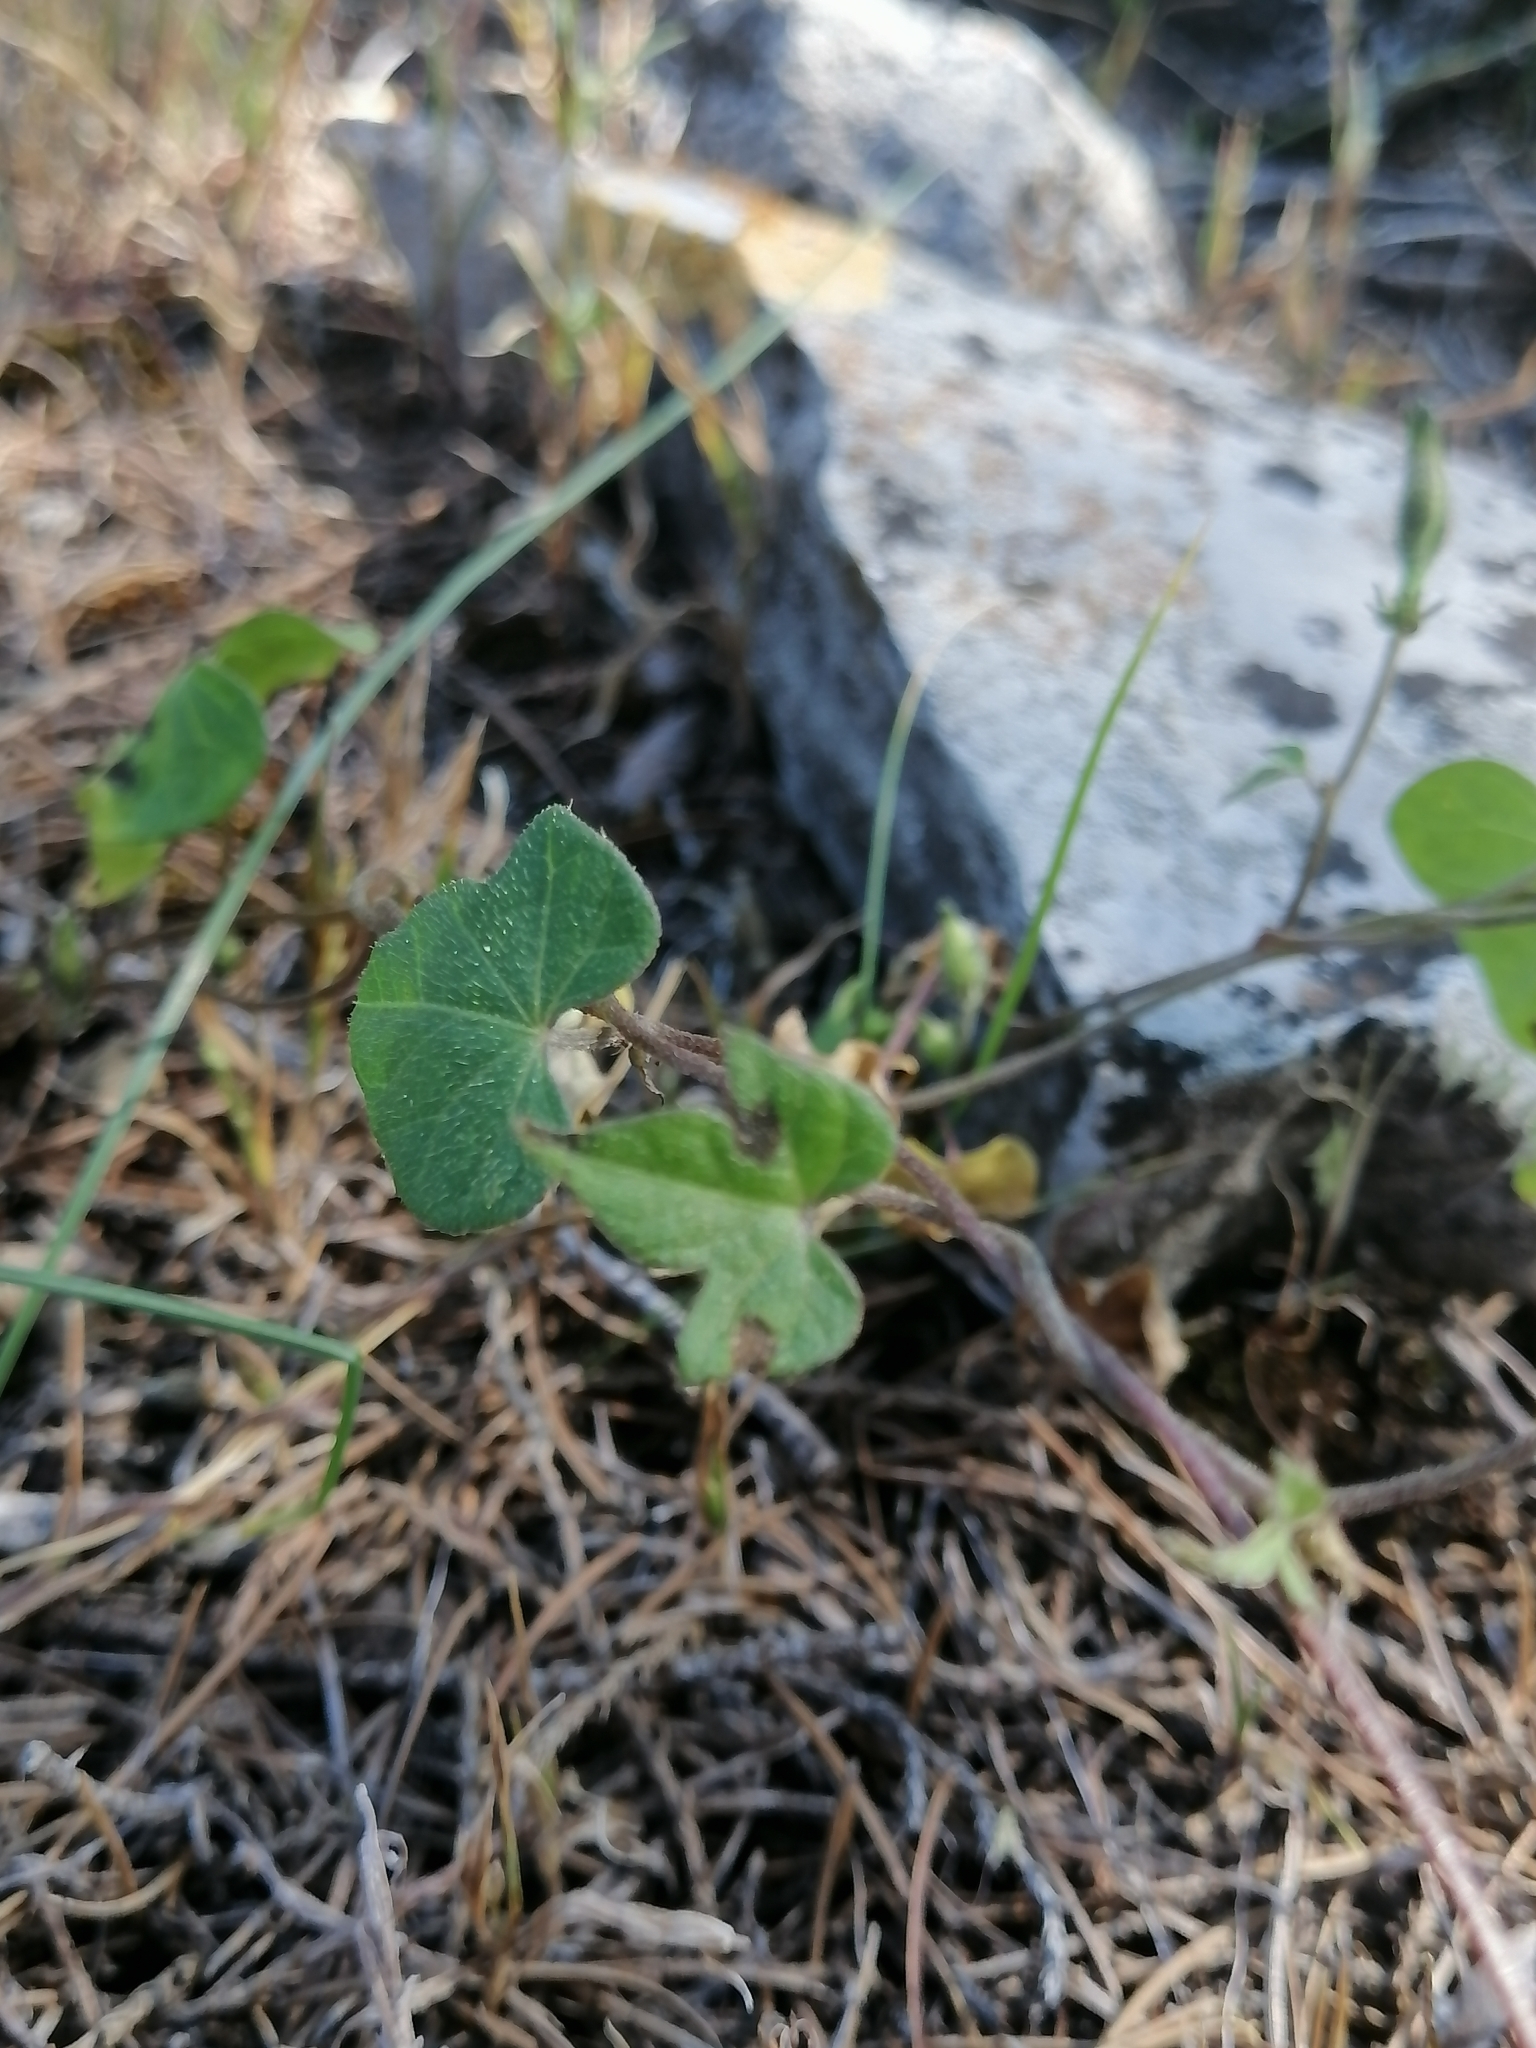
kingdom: Plantae
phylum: Tracheophyta
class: Magnoliopsida
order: Solanales
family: Convolvulaceae
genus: Ipomoea
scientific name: Ipomoea purpurea
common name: Common morning-glory
